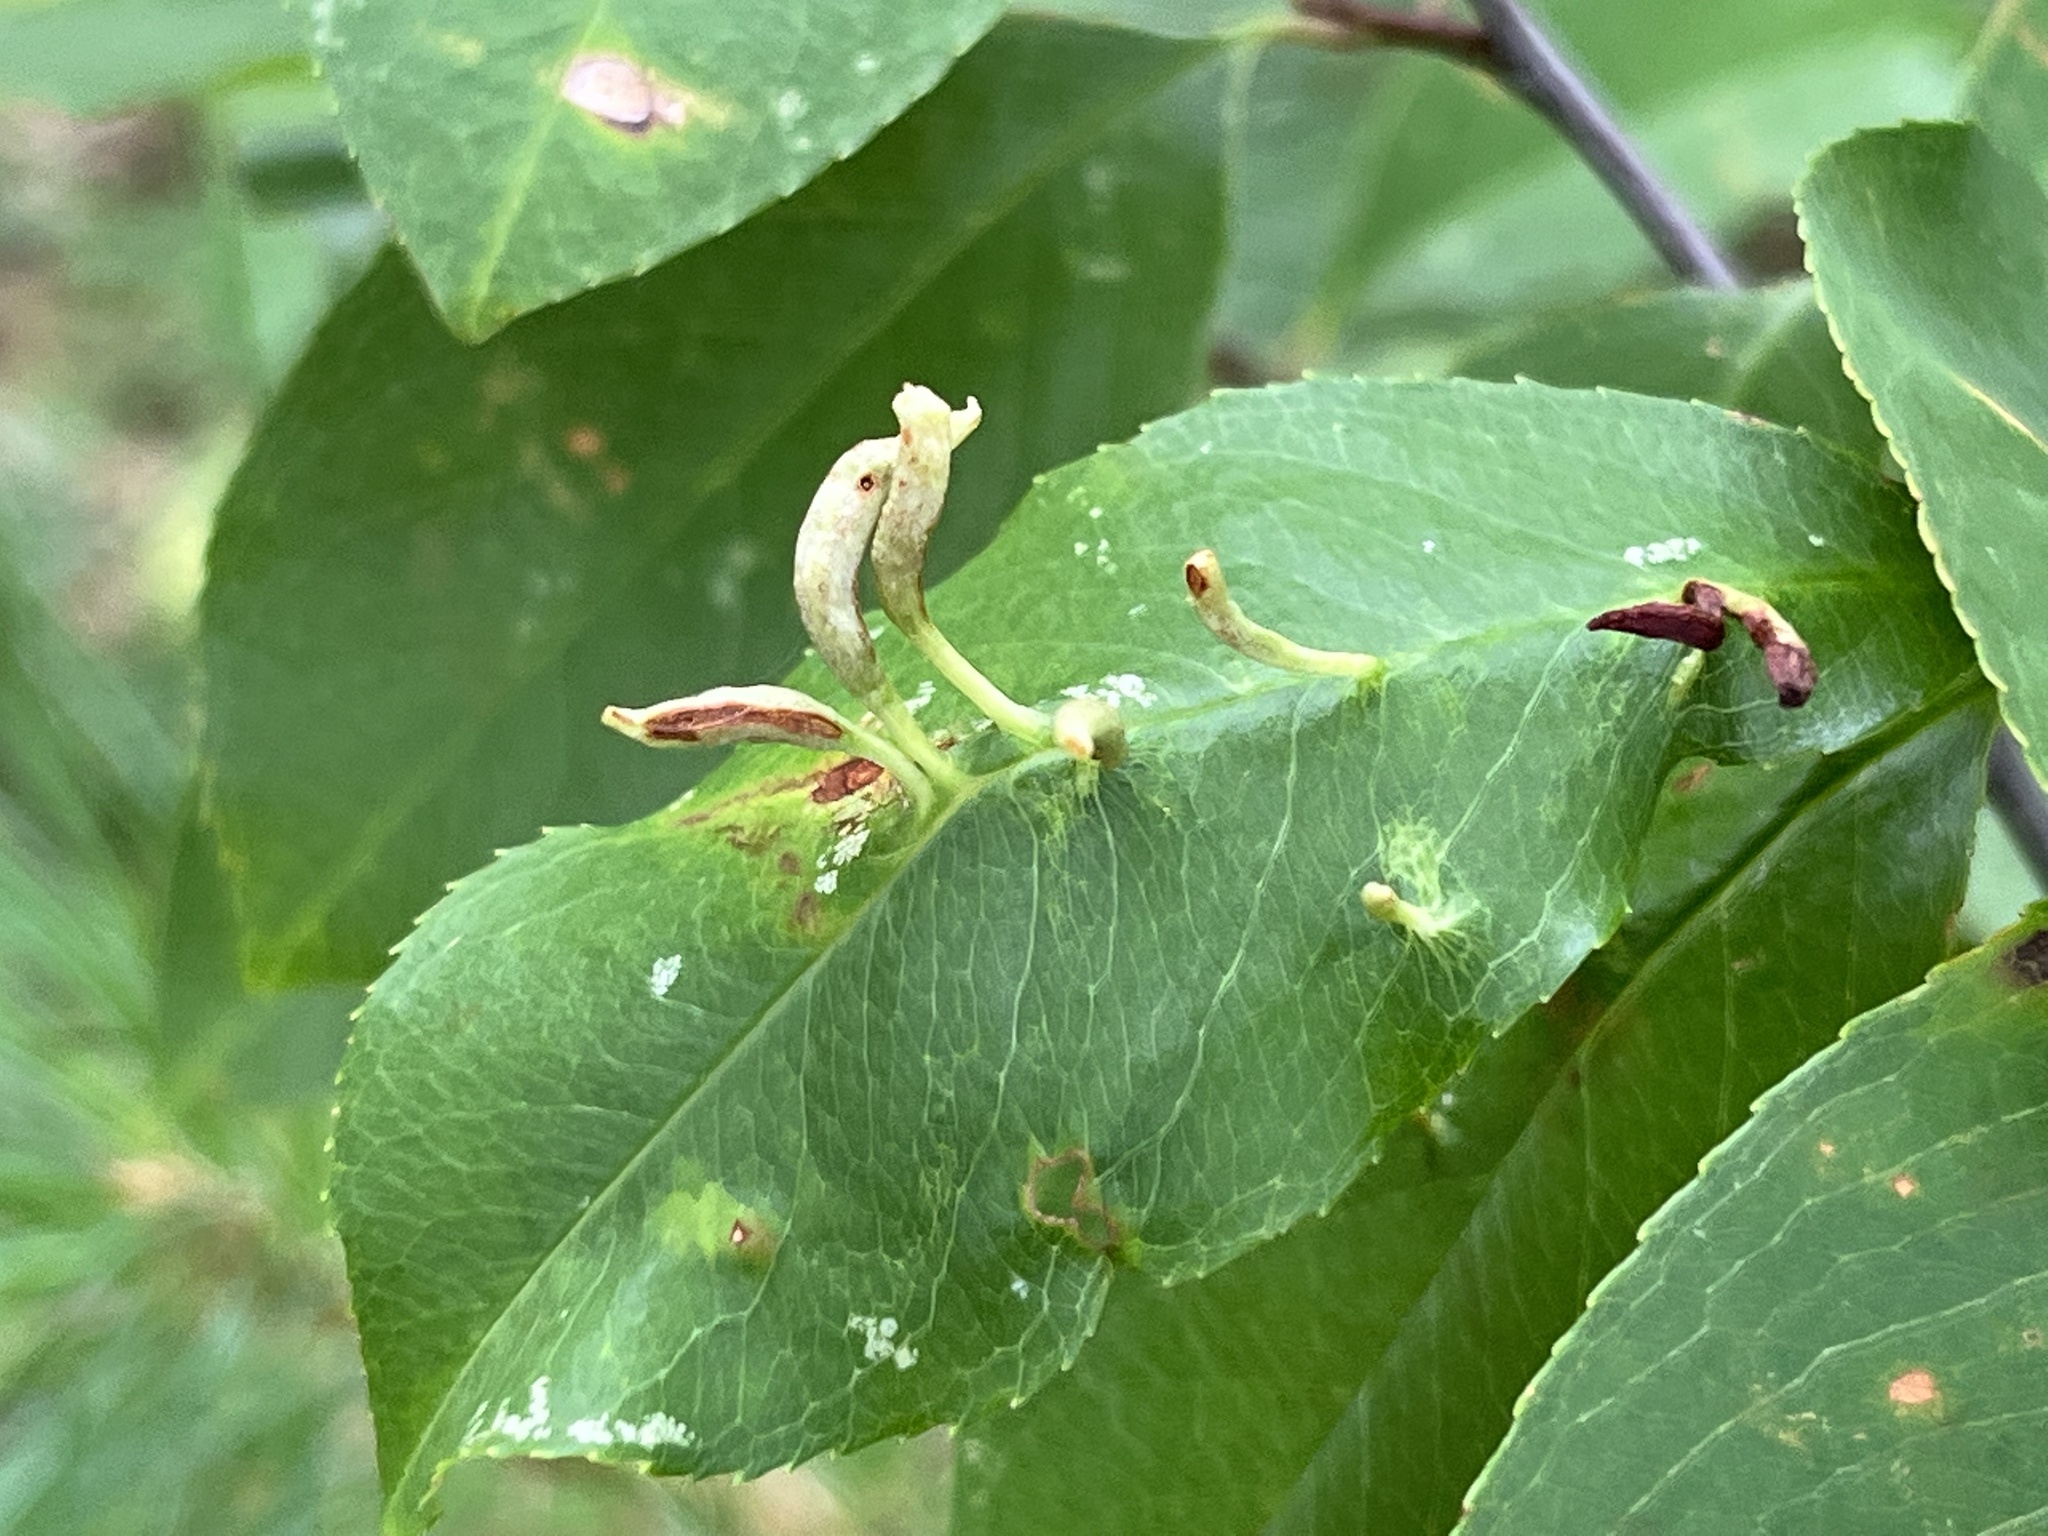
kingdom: Animalia
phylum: Arthropoda
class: Arachnida
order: Trombidiformes
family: Eriophyidae
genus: Eriophyes
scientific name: Eriophyes
